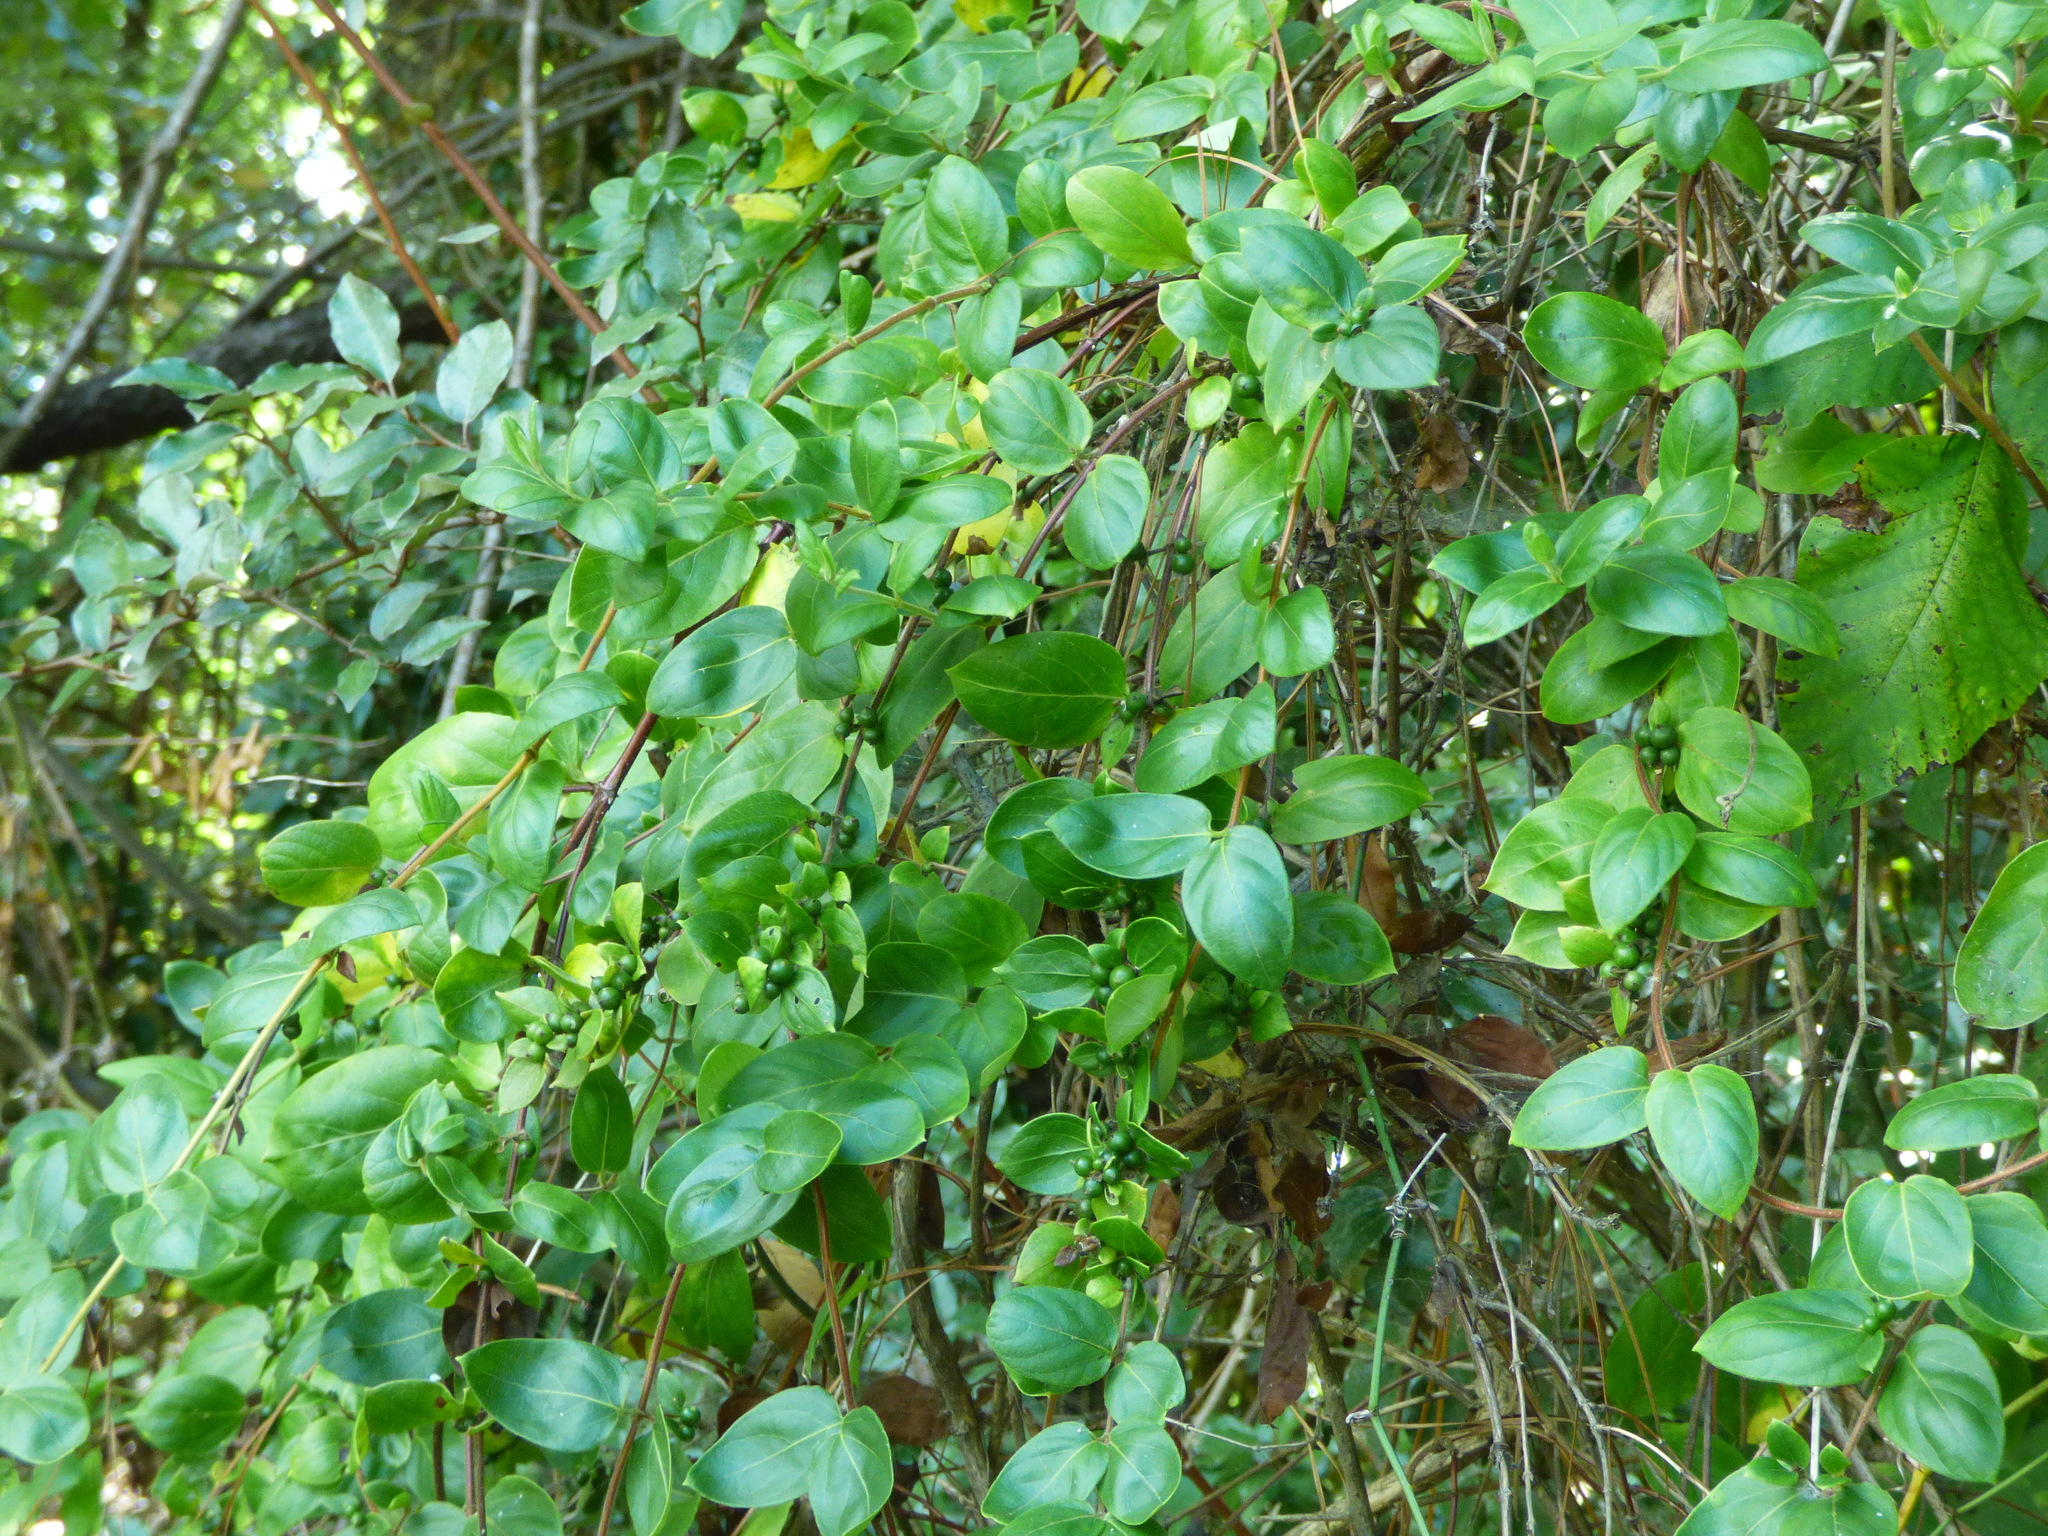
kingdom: Plantae
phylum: Tracheophyta
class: Magnoliopsida
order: Dipsacales
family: Caprifoliaceae
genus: Lonicera
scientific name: Lonicera japonica
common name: Japanese honeysuckle
